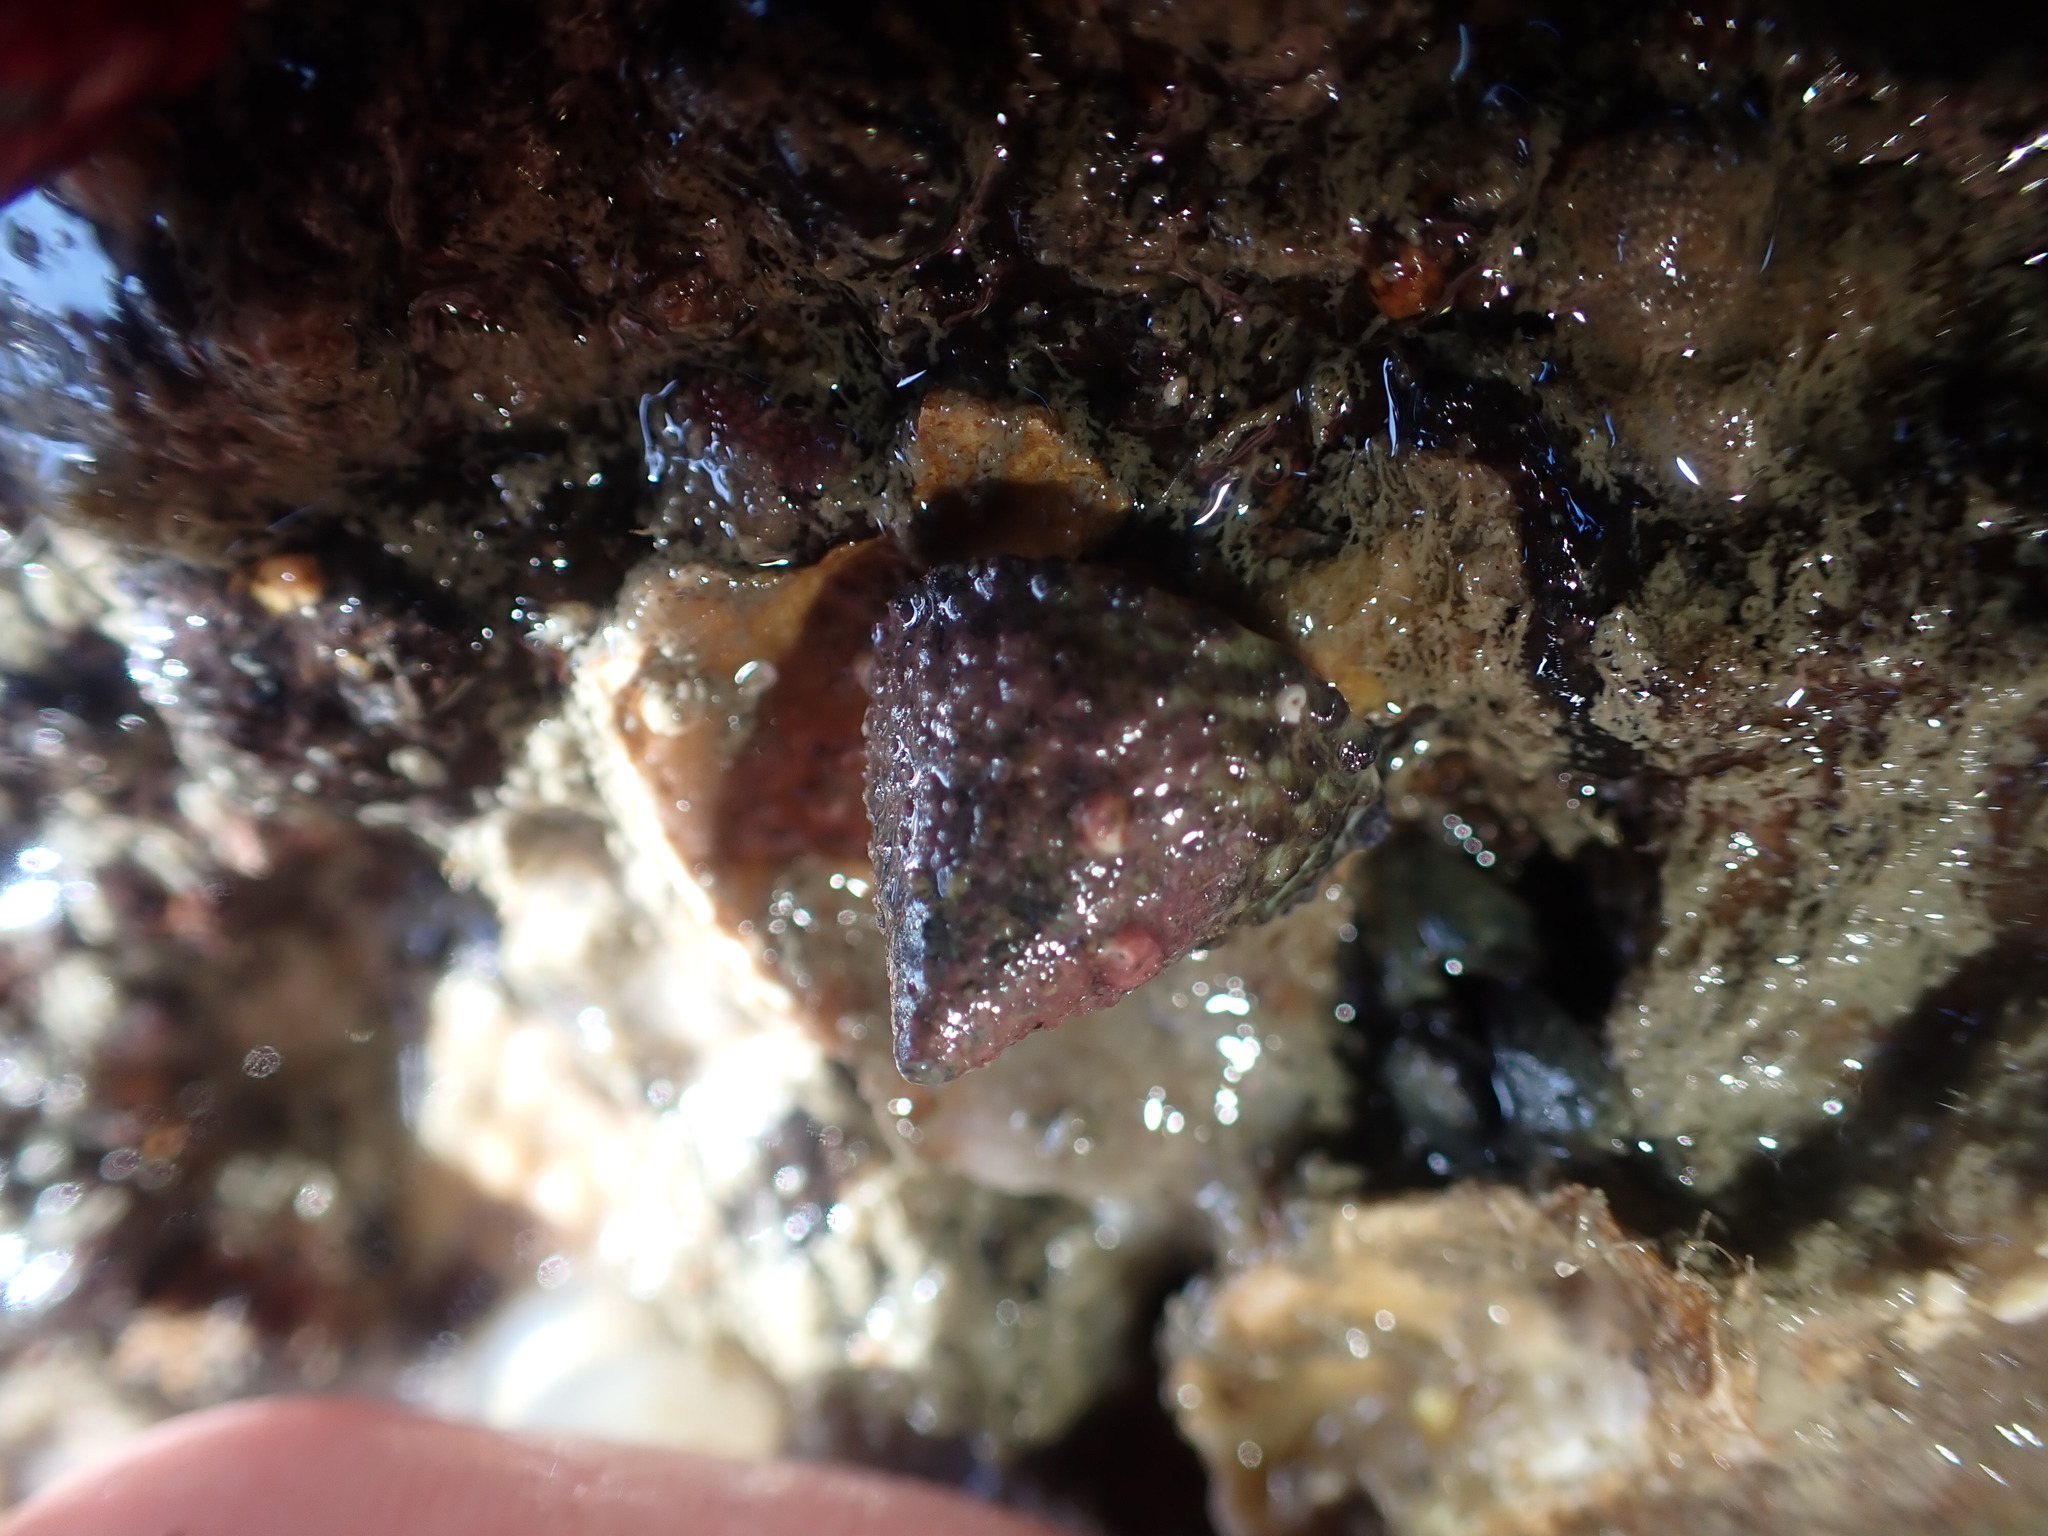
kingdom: Animalia
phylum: Mollusca
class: Gastropoda
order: Trochida
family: Trochidae
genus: Coelotrochus
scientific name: Coelotrochus viridis
